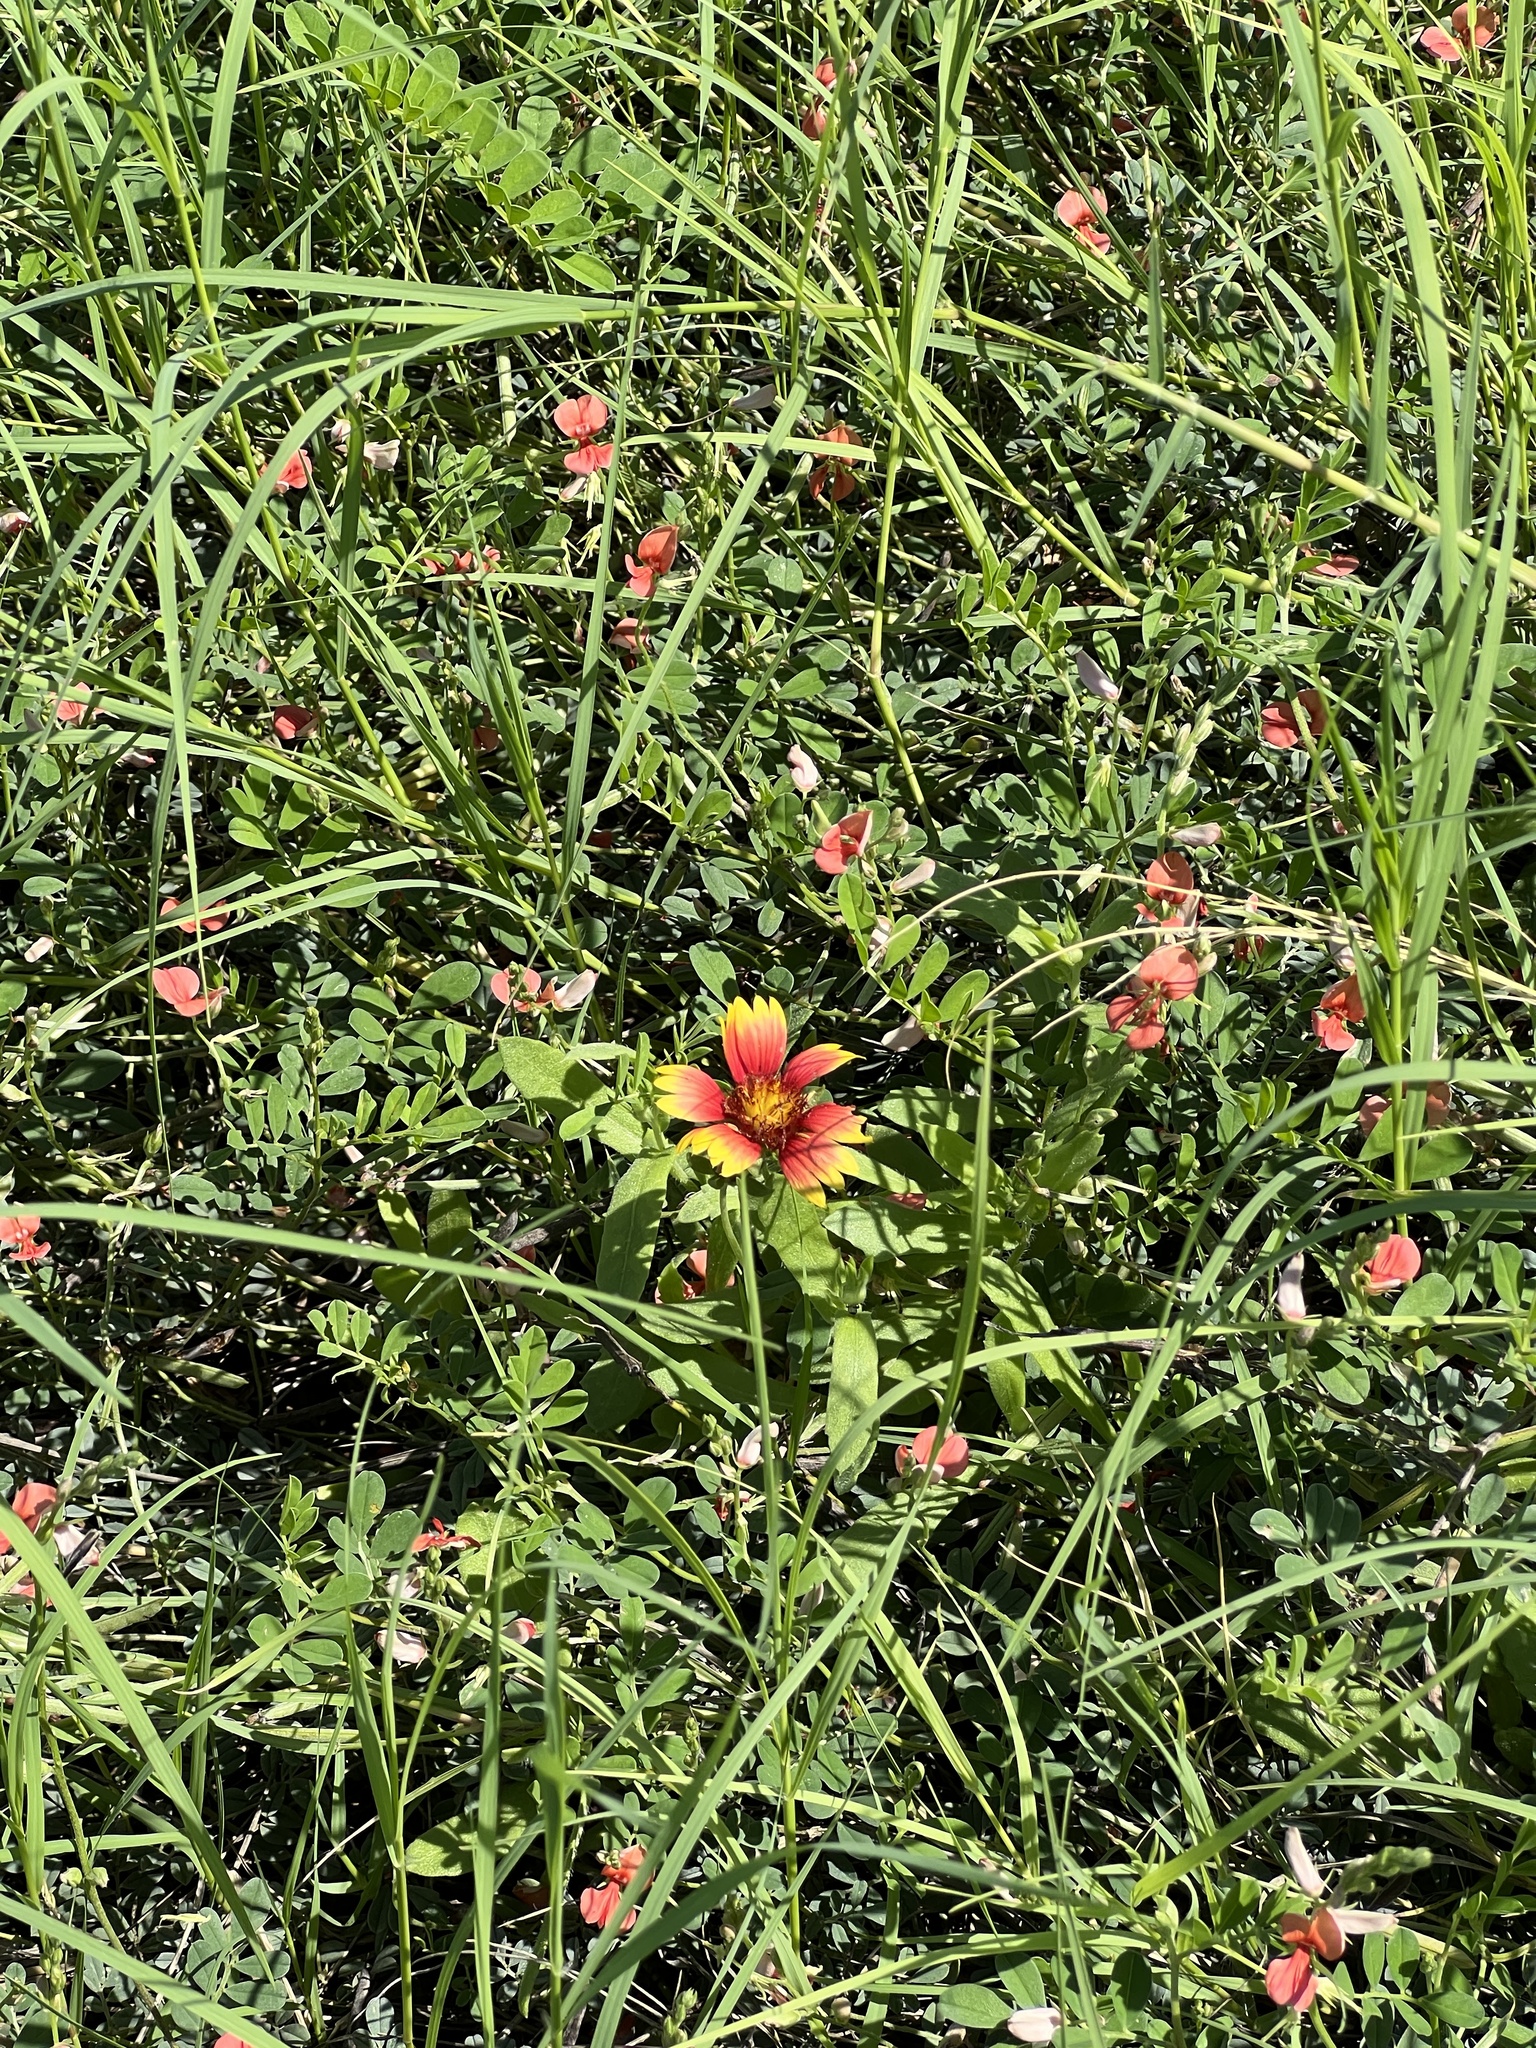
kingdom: Plantae
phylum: Tracheophyta
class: Magnoliopsida
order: Asterales
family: Asteraceae
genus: Gaillardia
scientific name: Gaillardia pulchella
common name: Firewheel
